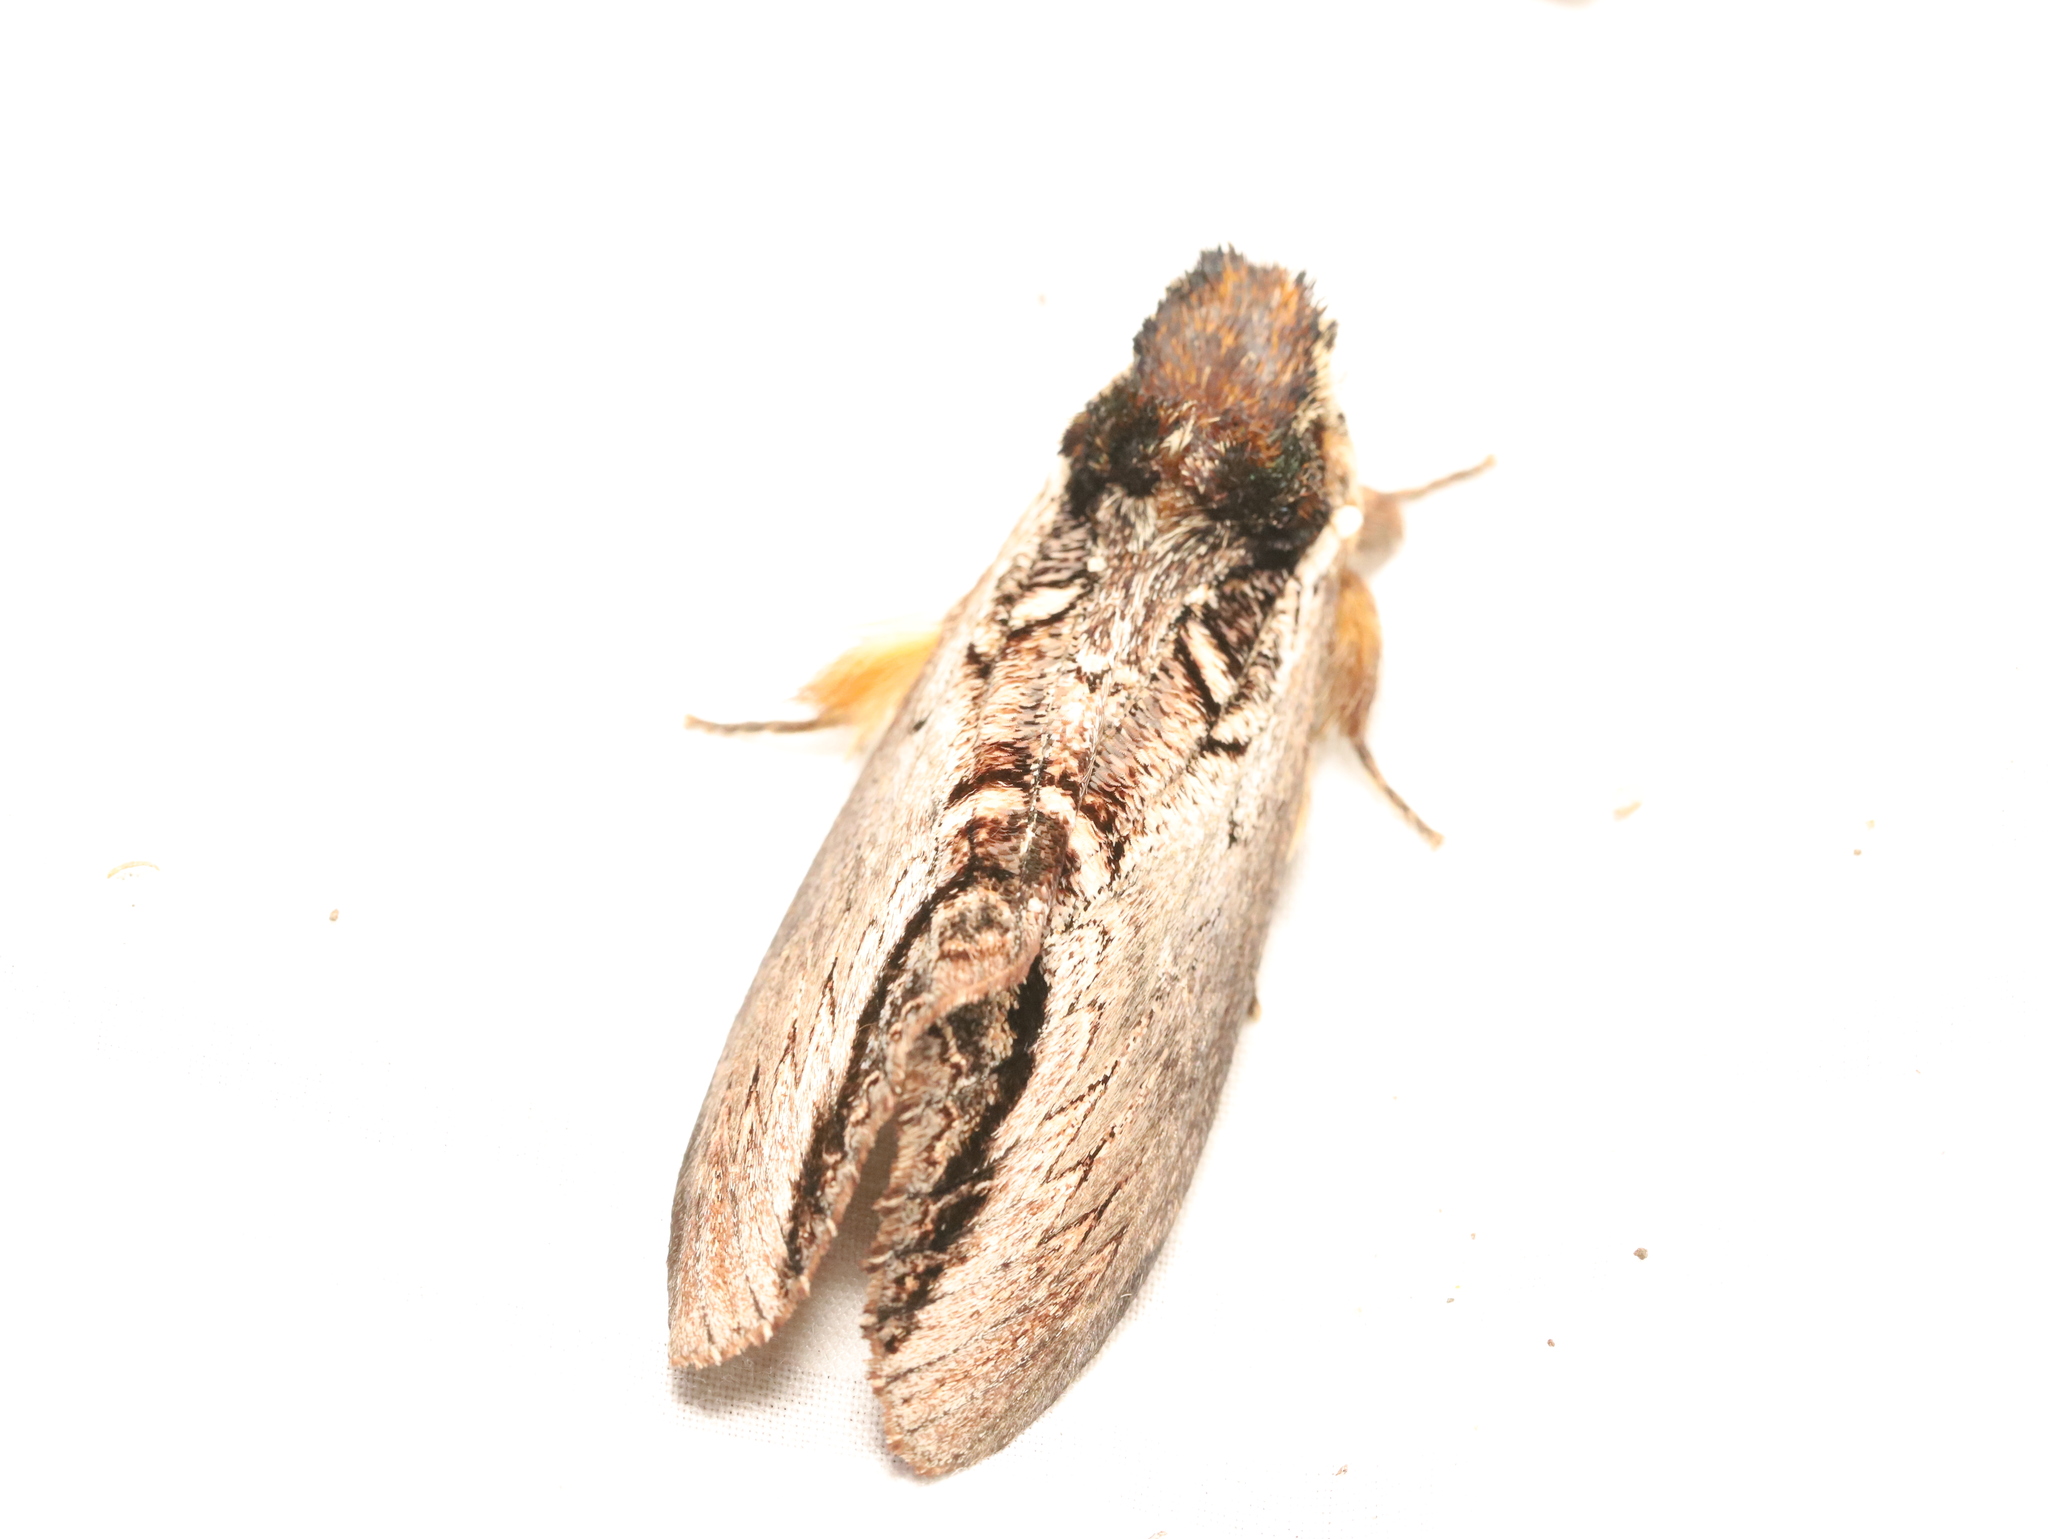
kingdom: Animalia
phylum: Arthropoda
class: Insecta
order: Lepidoptera
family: Notodontidae
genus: Hylaeora
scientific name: Hylaeora eucalypti
